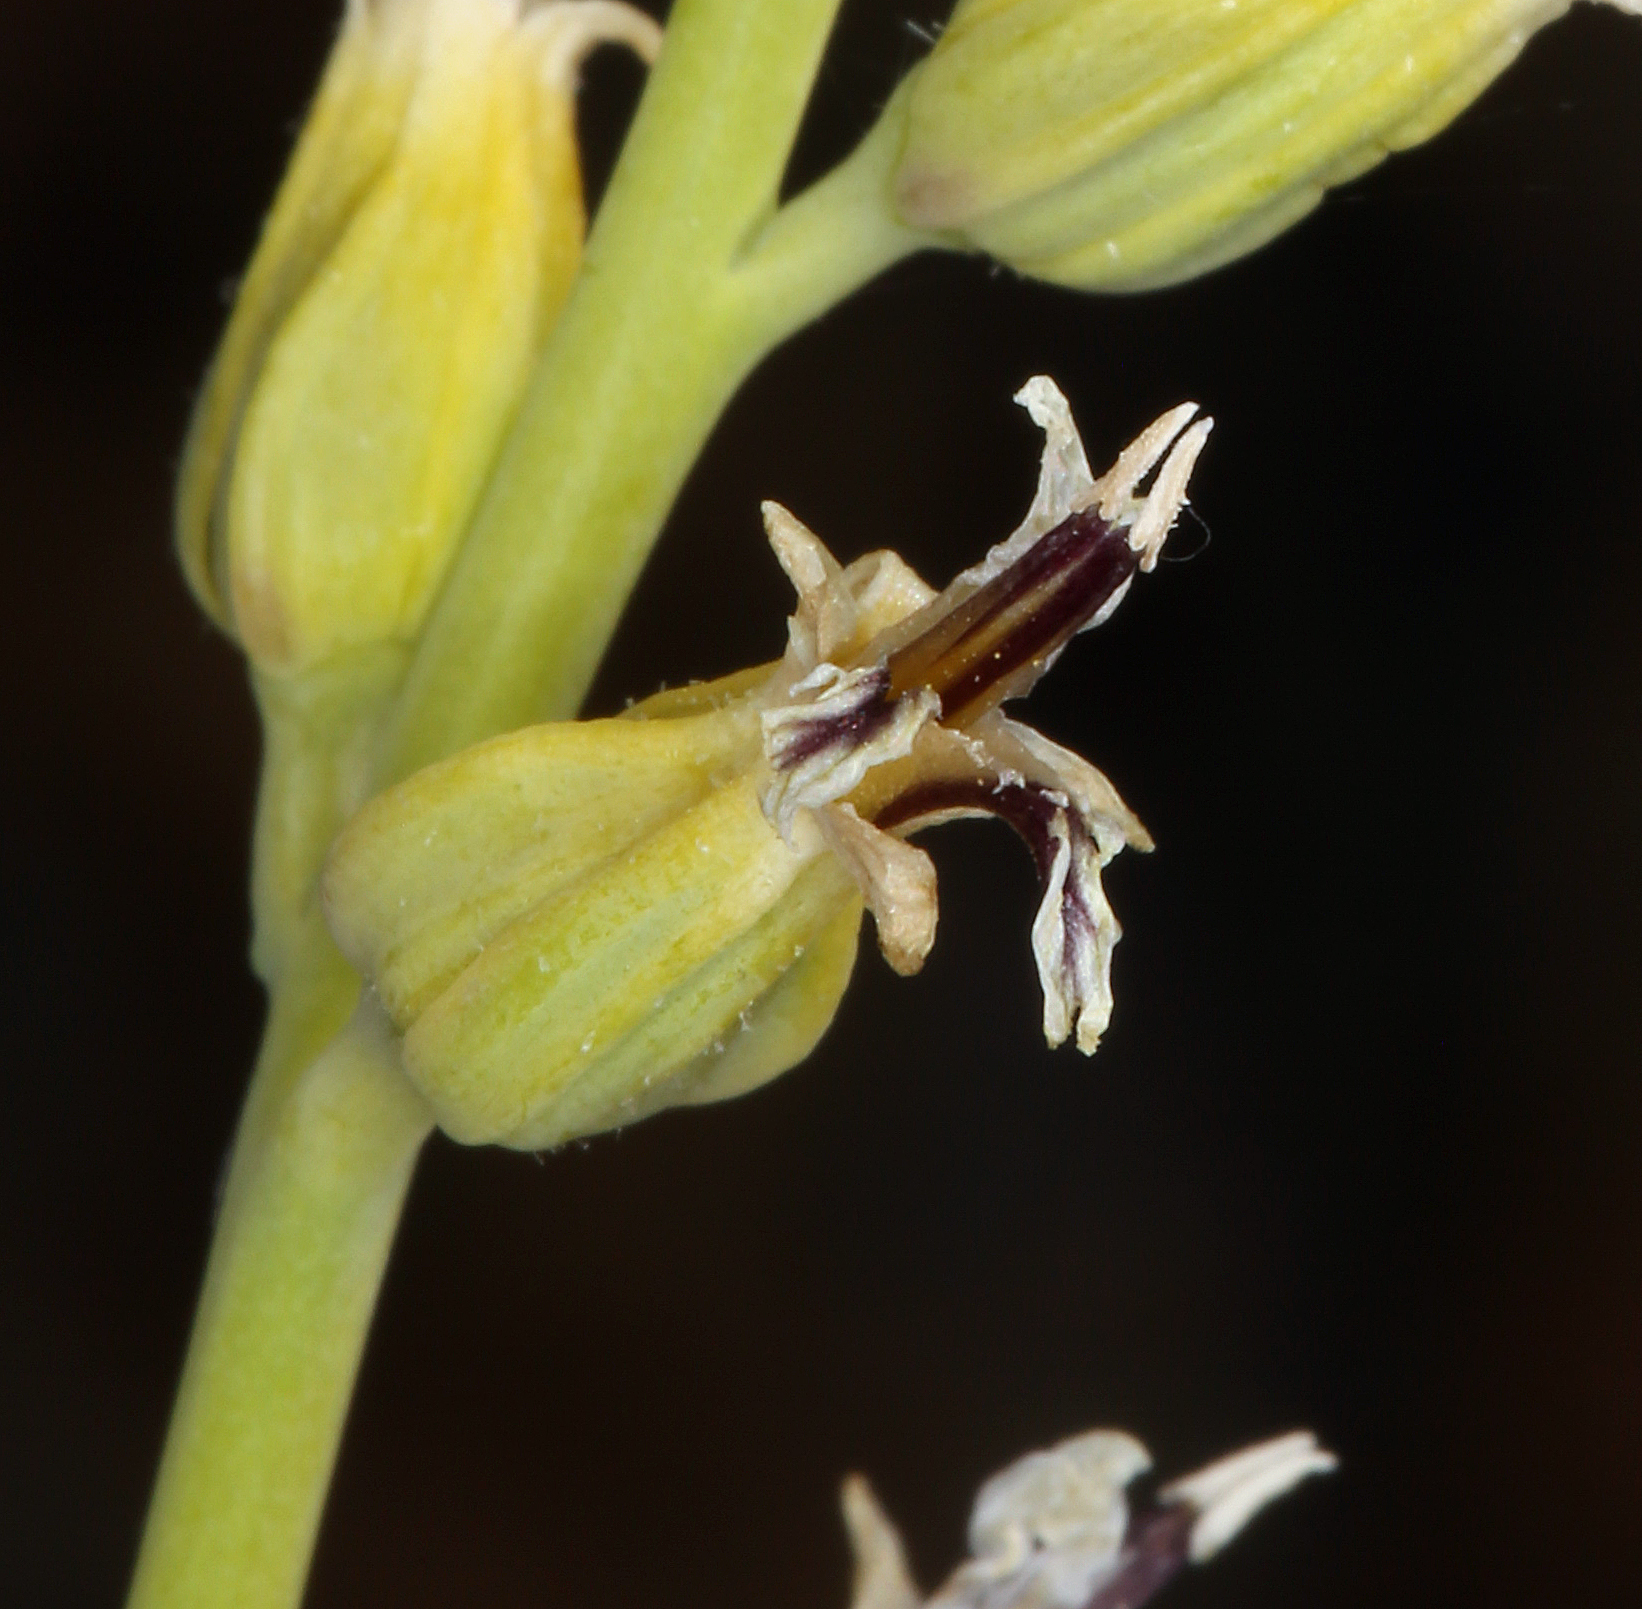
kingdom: Plantae
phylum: Tracheophyta
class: Magnoliopsida
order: Brassicales
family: Brassicaceae
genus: Streptanthus
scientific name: Streptanthus tortuosus
